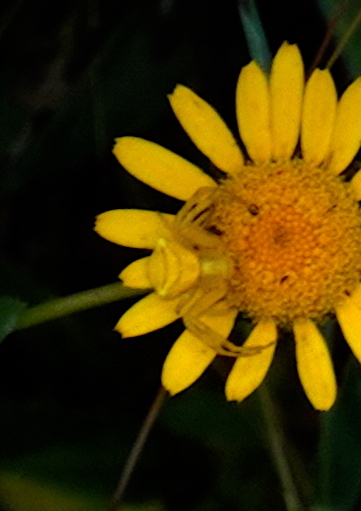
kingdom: Animalia
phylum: Arthropoda
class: Arachnida
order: Araneae
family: Thomisidae
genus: Thomisus
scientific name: Thomisus onustus
